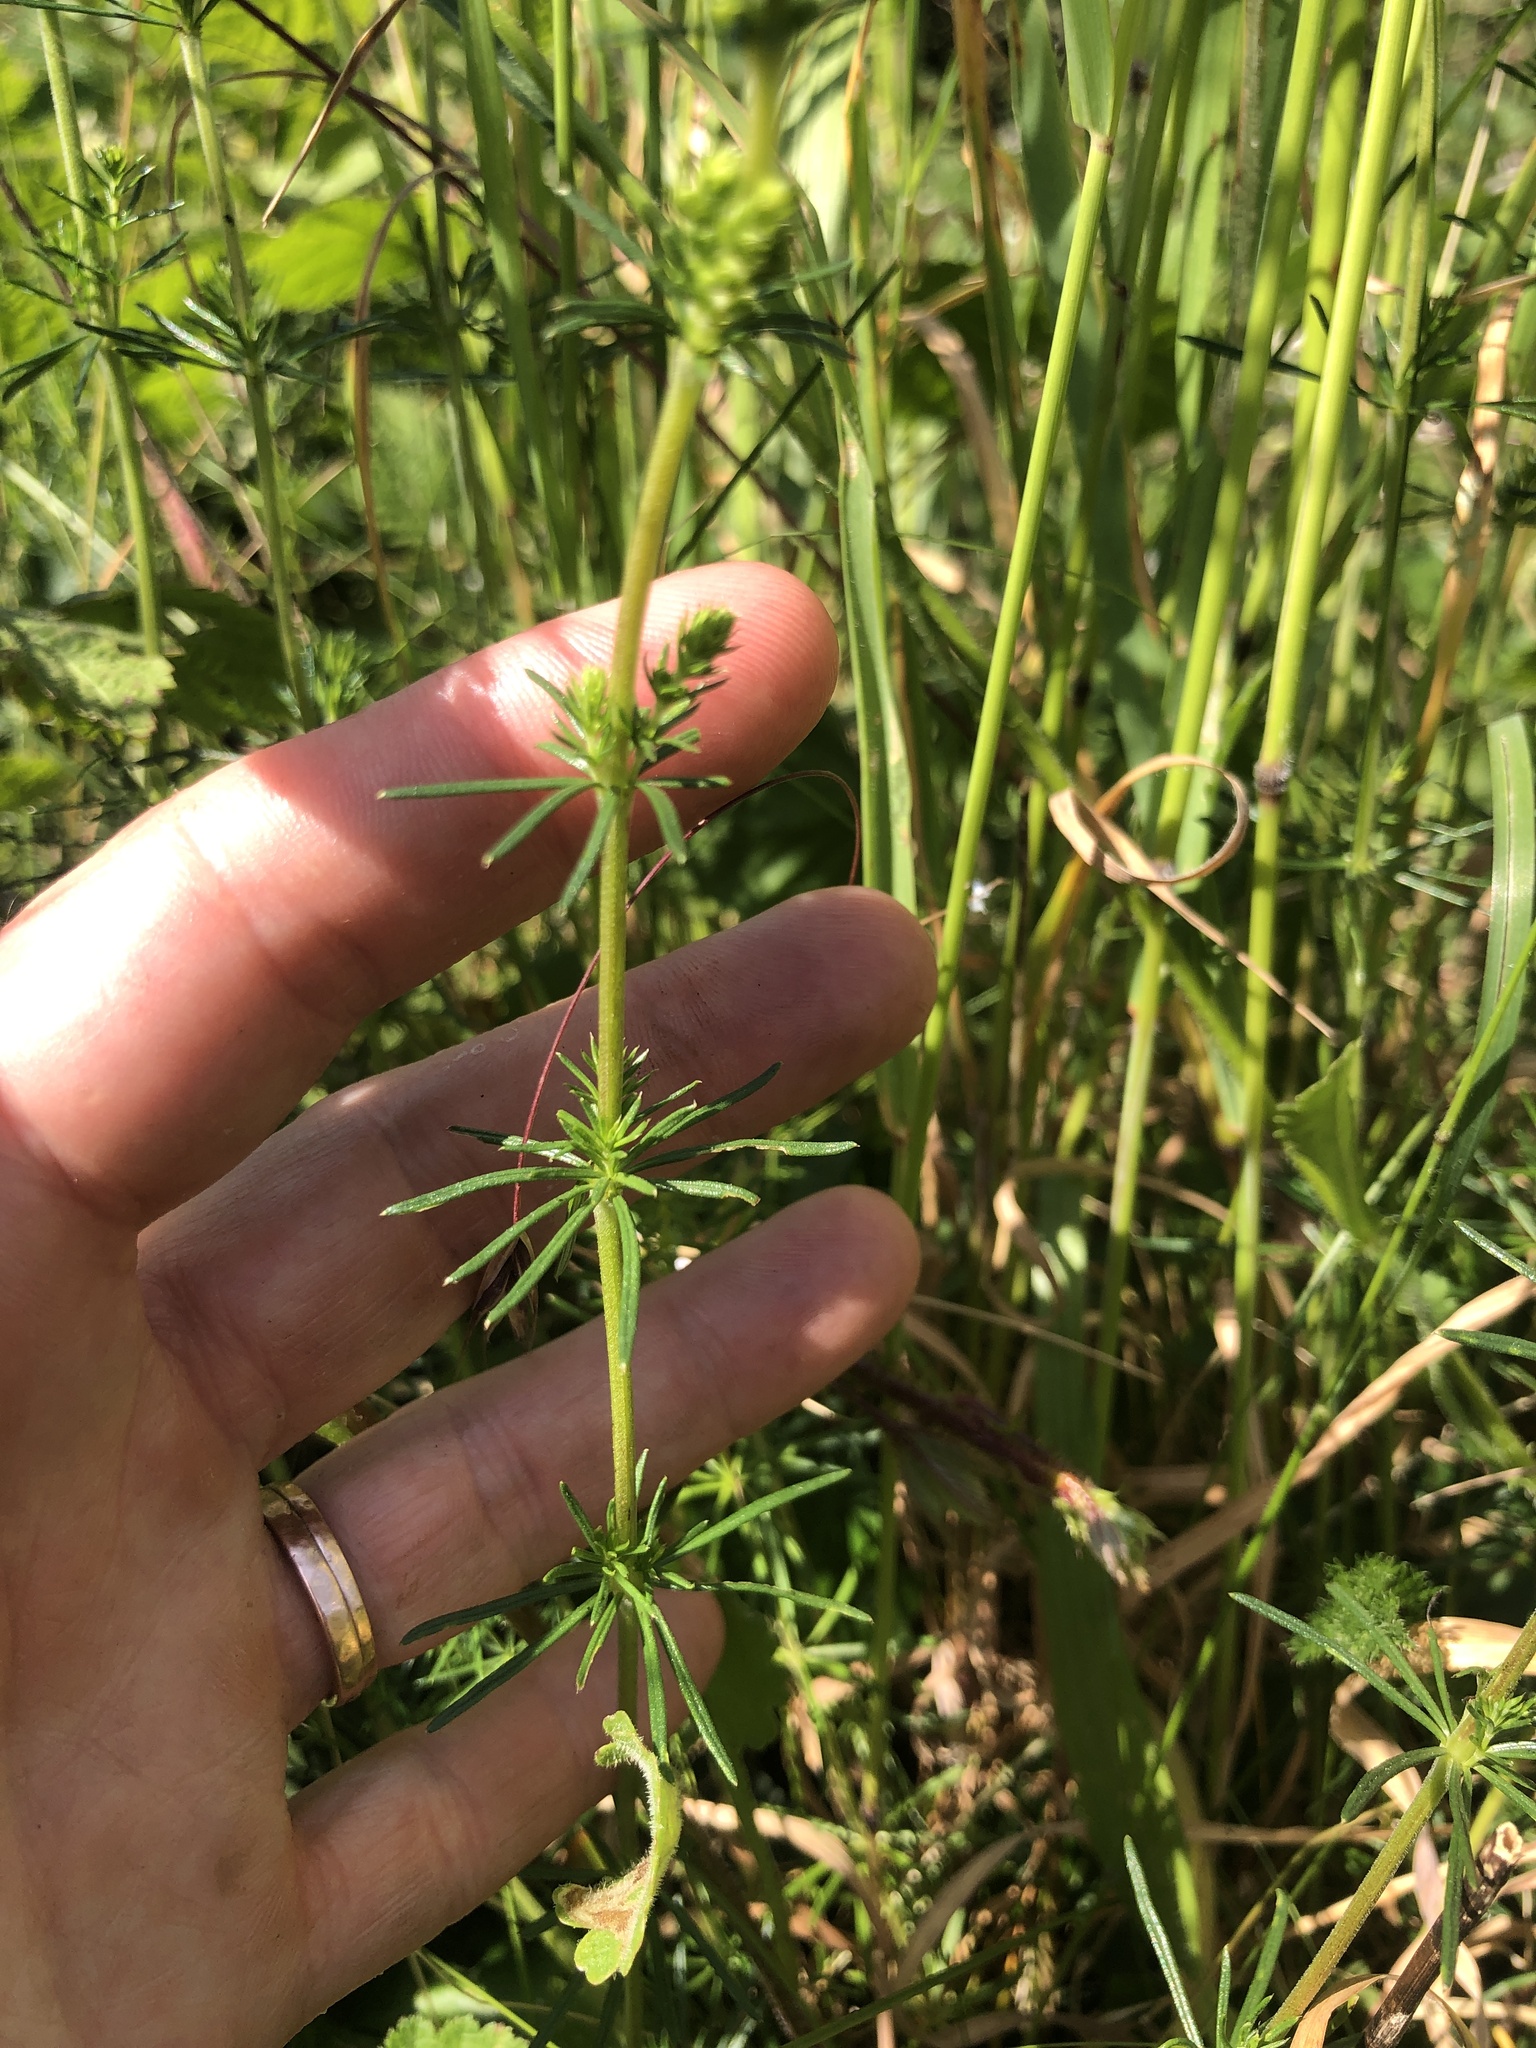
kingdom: Plantae
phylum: Tracheophyta
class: Magnoliopsida
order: Gentianales
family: Rubiaceae
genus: Galium
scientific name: Galium verum
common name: Lady's bedstraw
